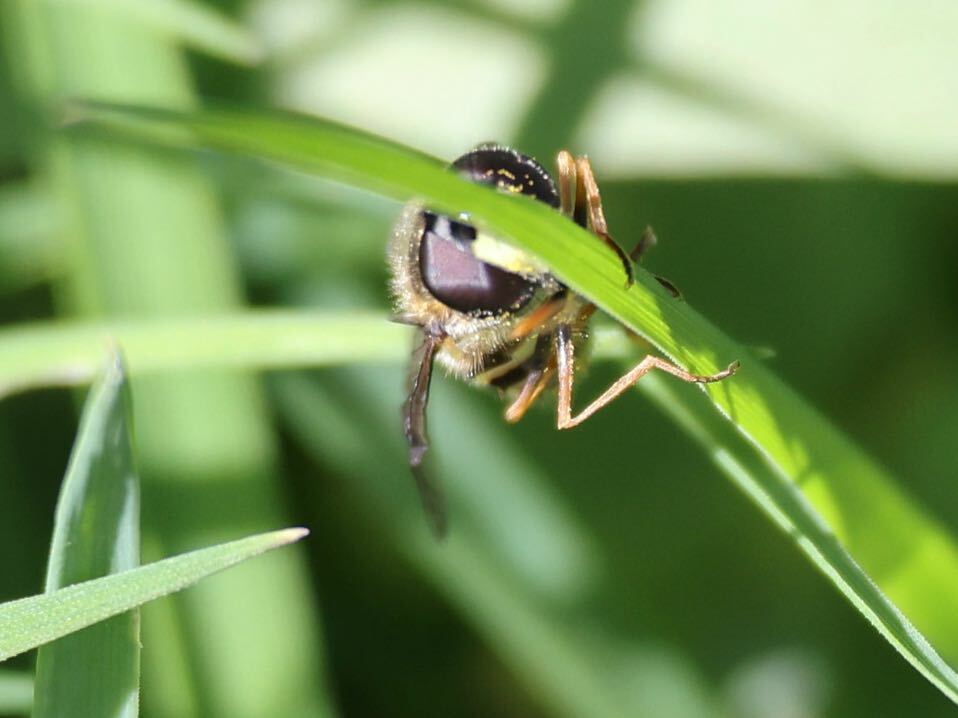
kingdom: Animalia
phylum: Arthropoda
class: Insecta
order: Diptera
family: Syrphidae
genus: Dasysyrphus
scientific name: Dasysyrphus tricinctus
